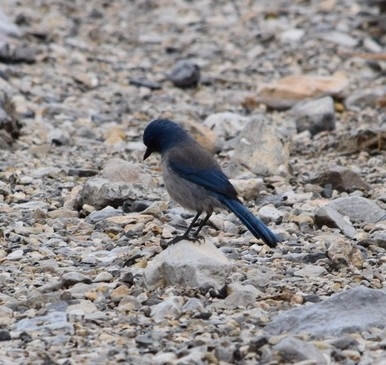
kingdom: Animalia
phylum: Chordata
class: Aves
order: Passeriformes
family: Corvidae
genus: Aphelocoma
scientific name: Aphelocoma woodhouseii
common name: Woodhouse's scrub-jay
